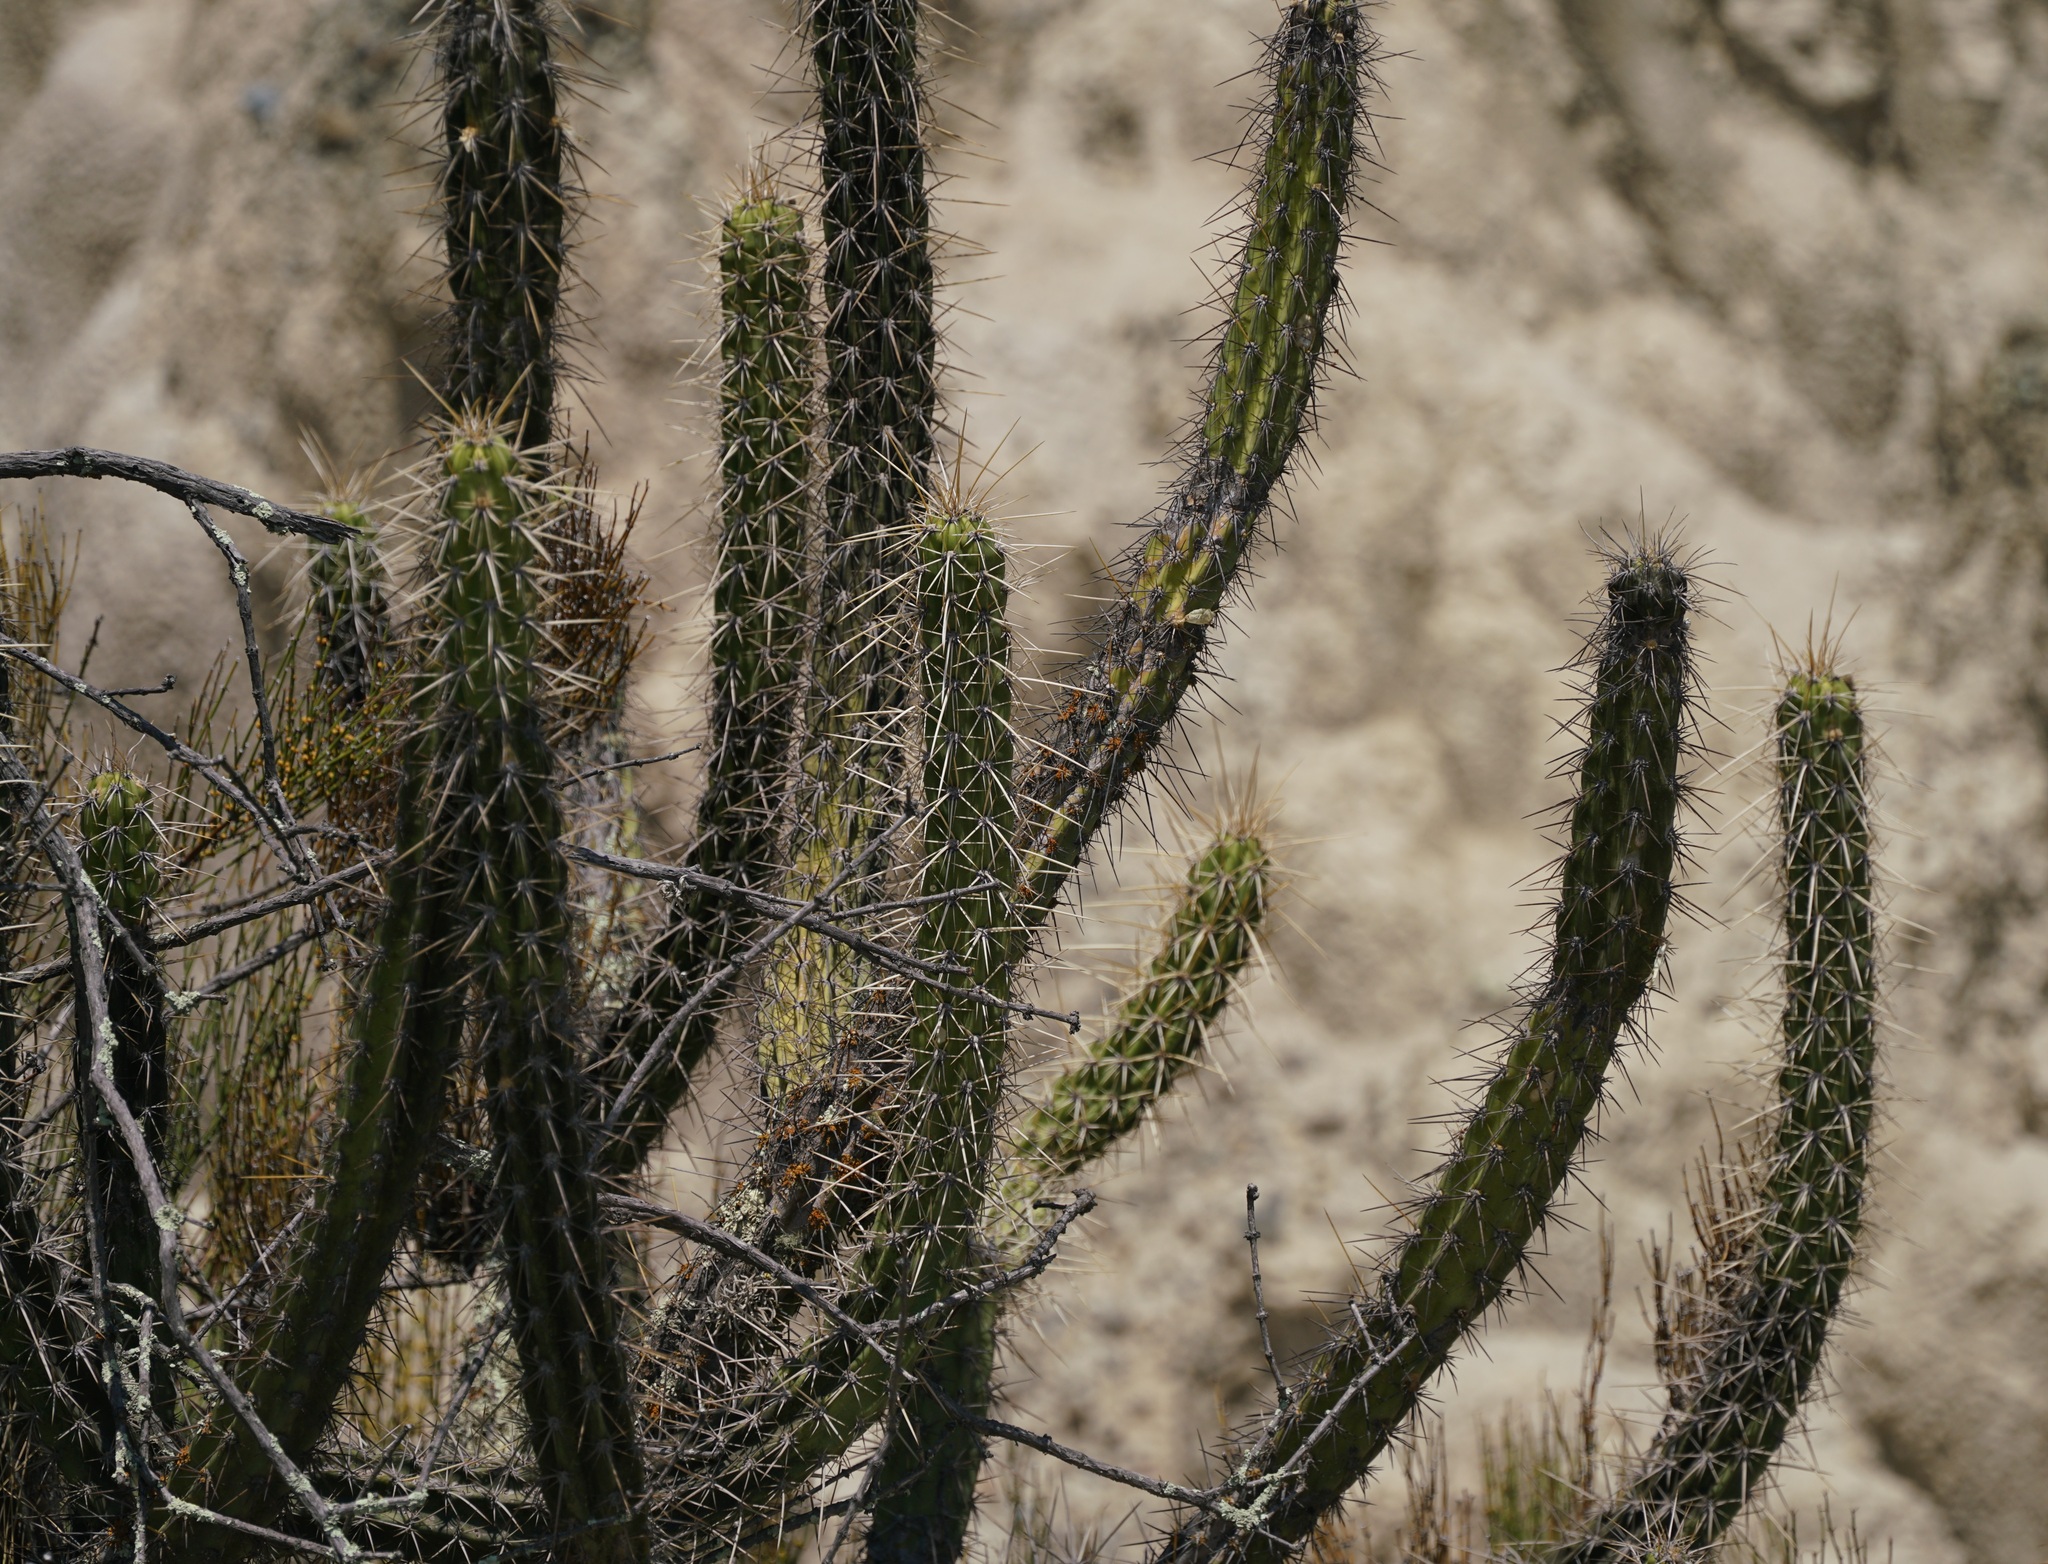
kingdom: Plantae
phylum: Tracheophyta
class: Magnoliopsida
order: Caryophyllales
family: Cactaceae
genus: Corryocactus
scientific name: Corryocactus melanotrichus
